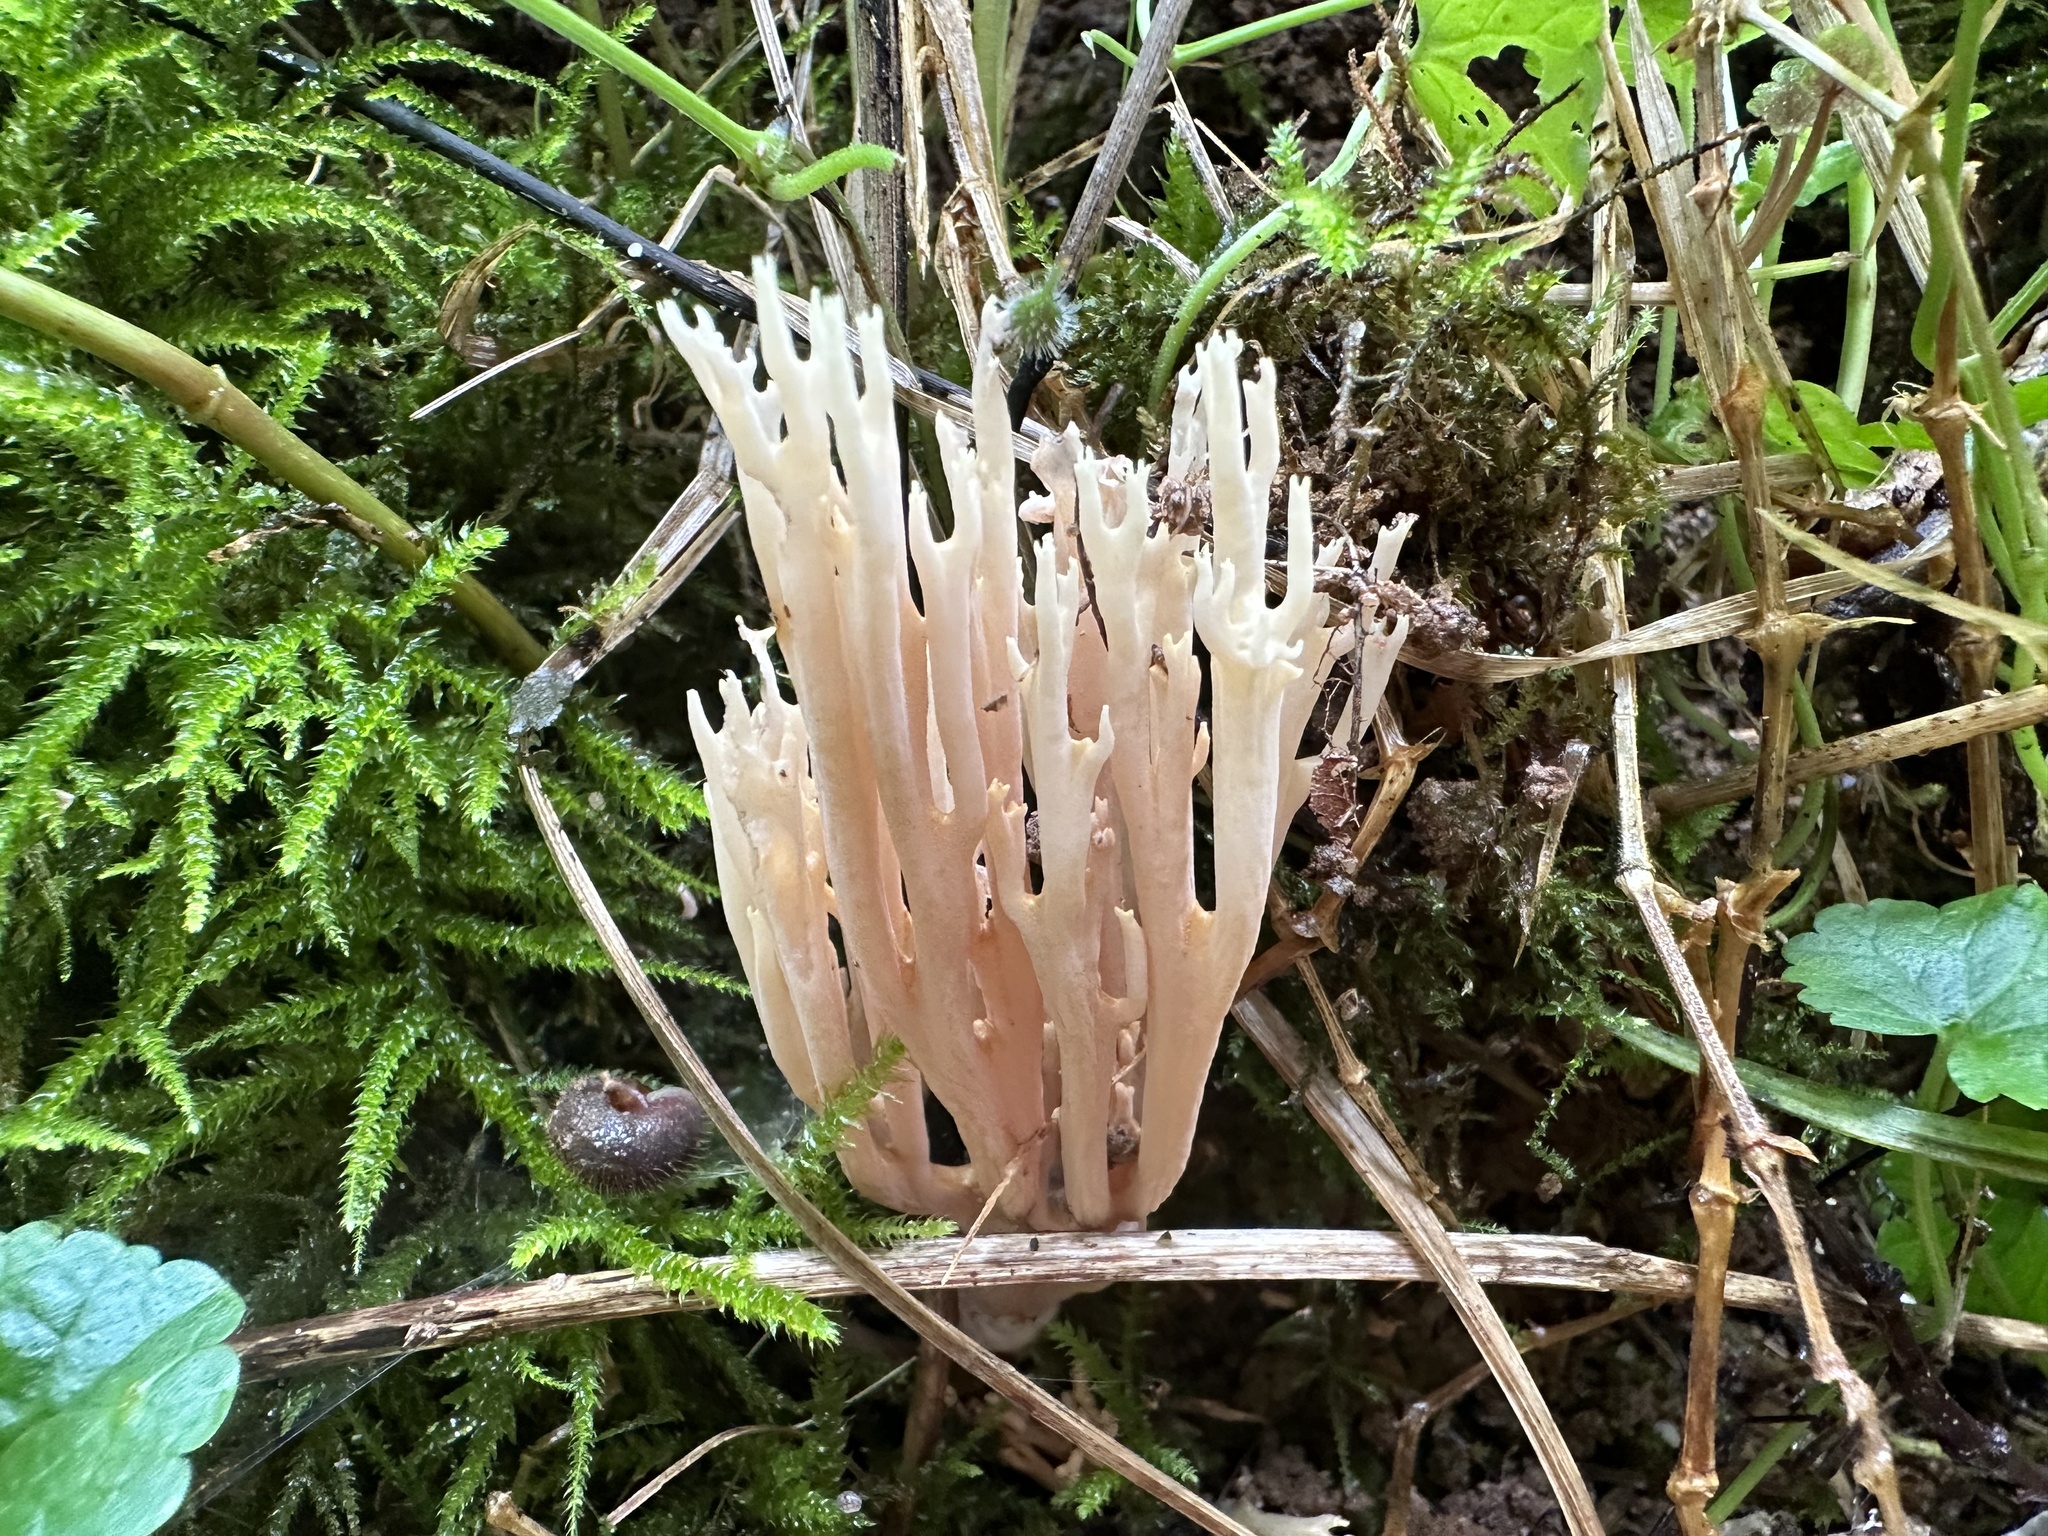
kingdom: Fungi
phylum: Basidiomycota
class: Agaricomycetes
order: Gomphales
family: Gomphaceae
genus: Ramaria
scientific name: Ramaria stricta
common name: Upright coral
